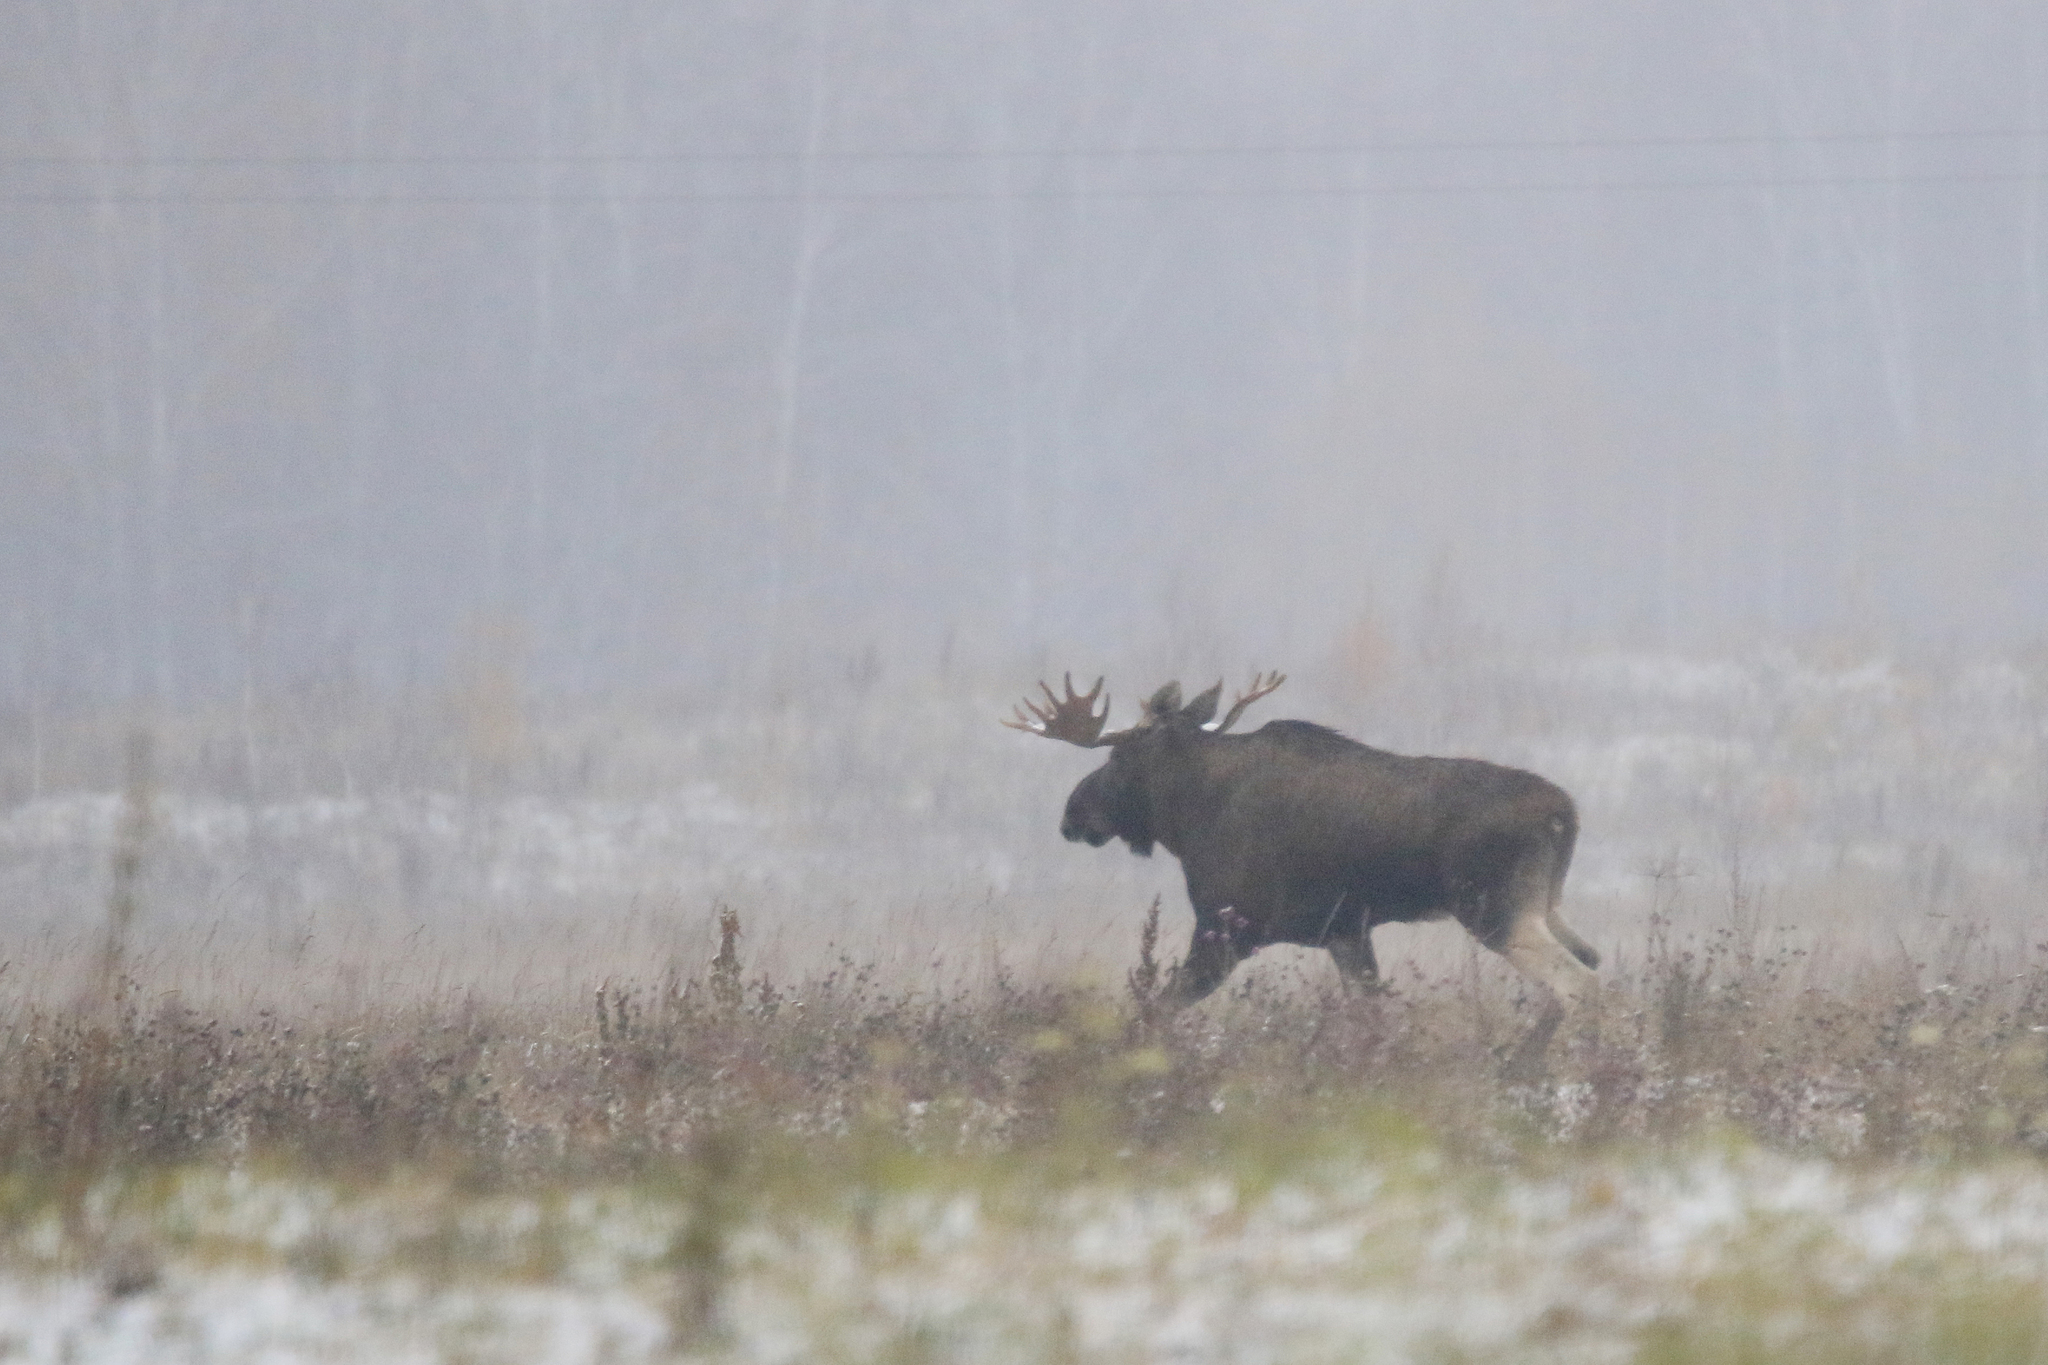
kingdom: Animalia
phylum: Chordata
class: Mammalia
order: Artiodactyla
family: Cervidae
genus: Alces
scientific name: Alces alces
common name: Moose
